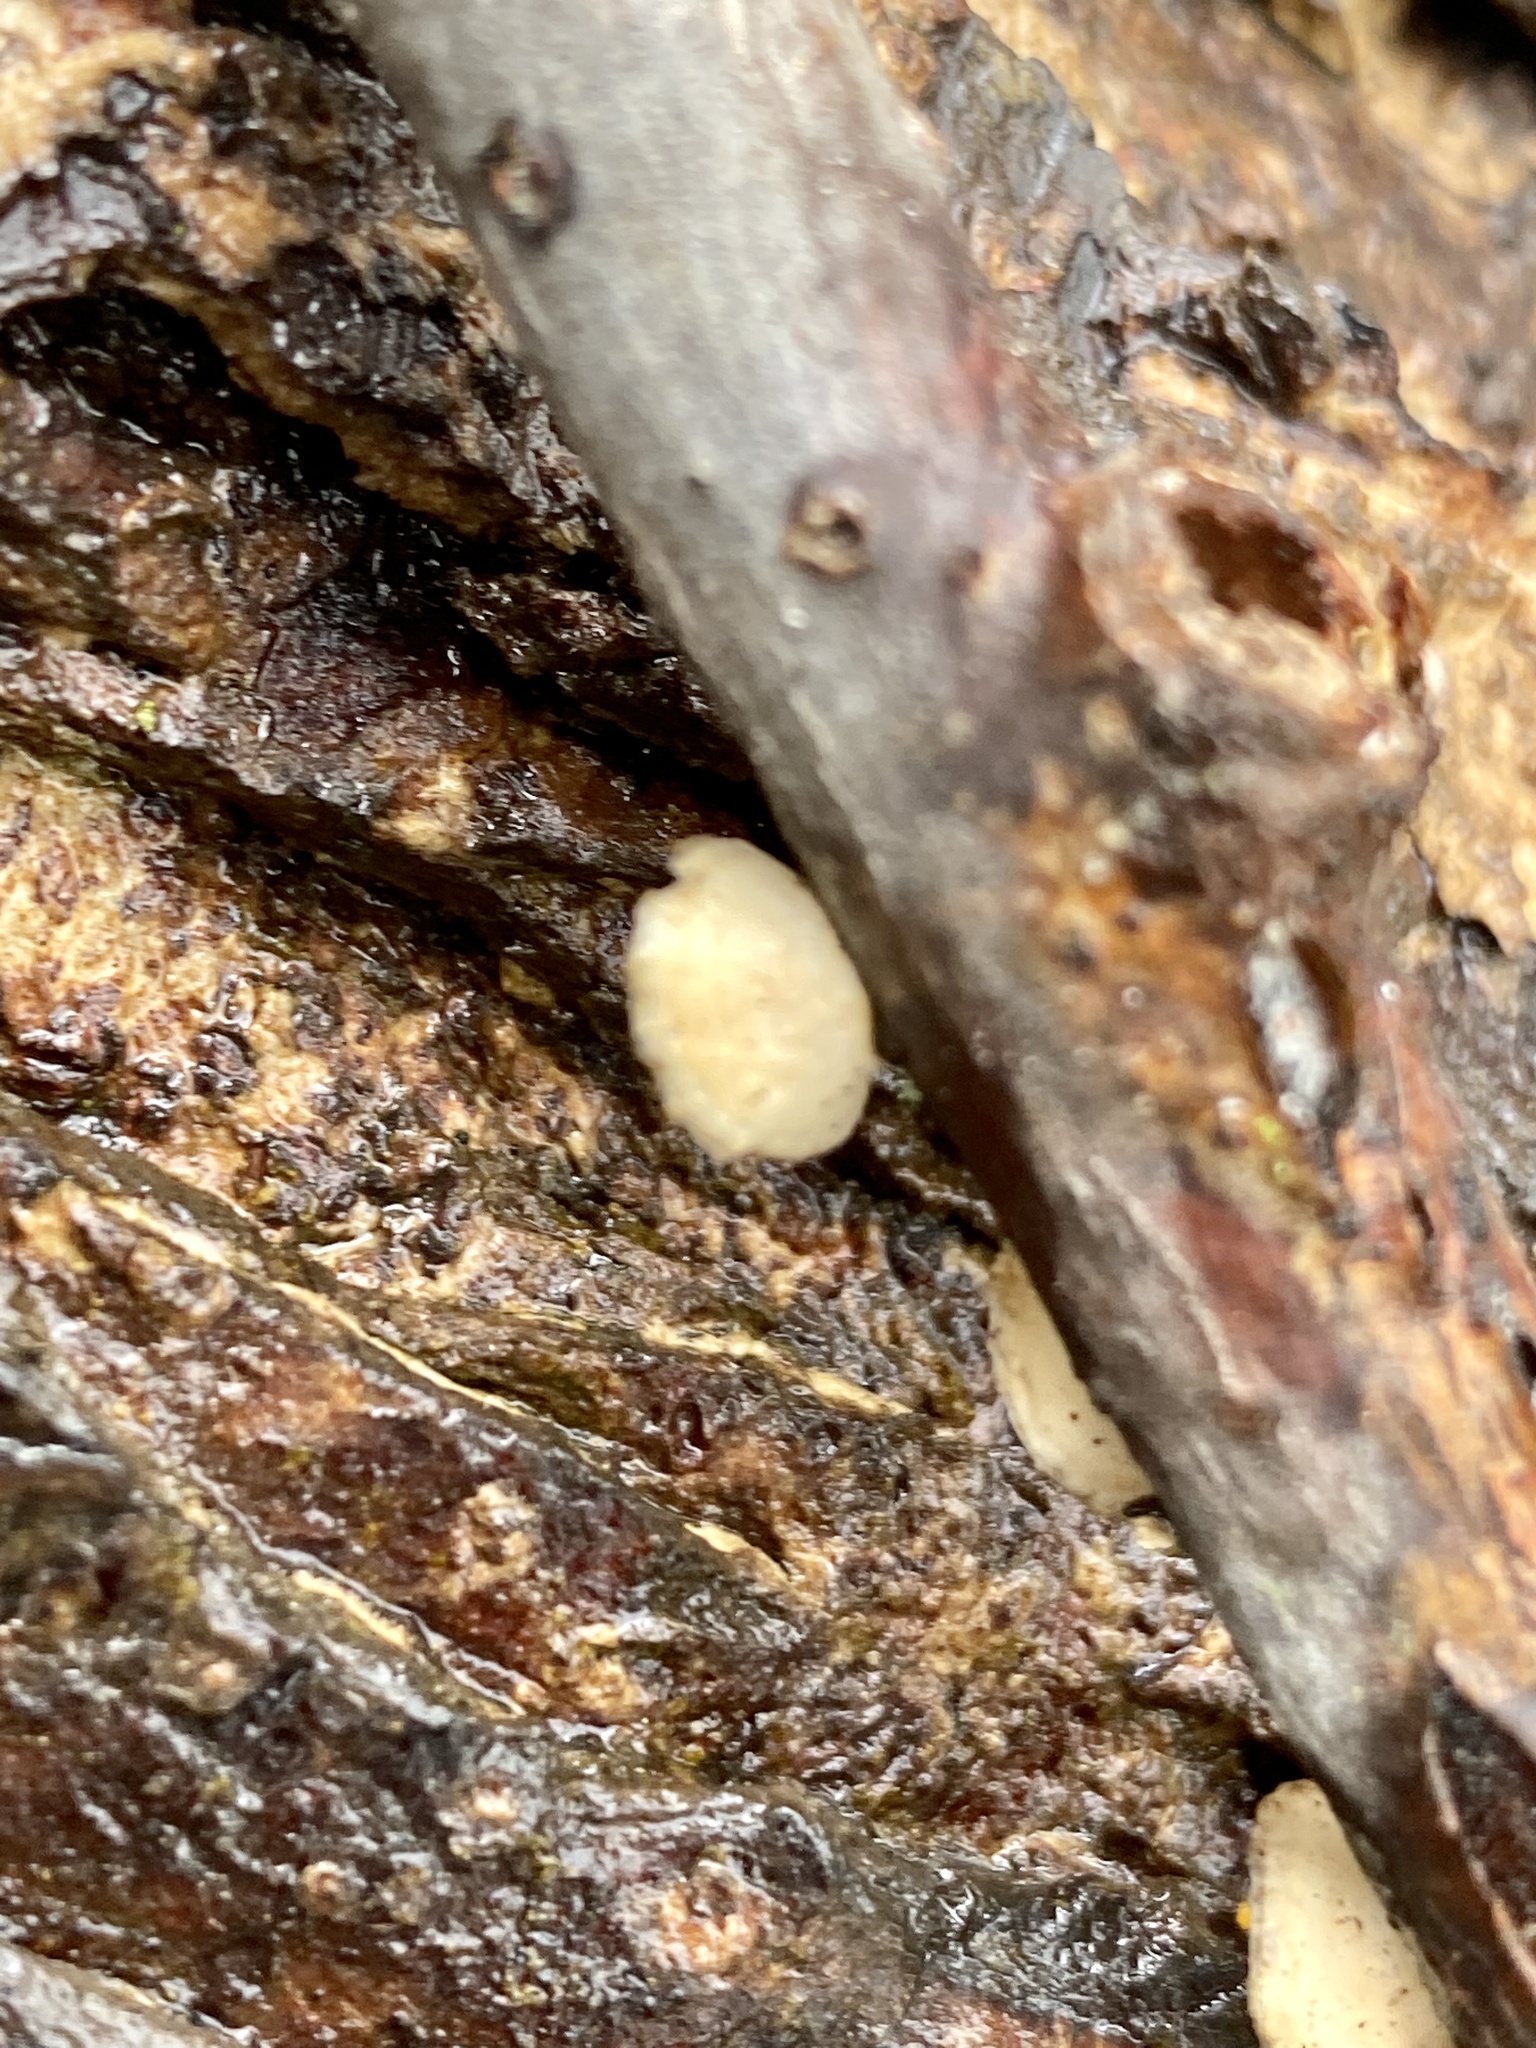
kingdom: Fungi
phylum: Basidiomycota
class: Agaricomycetes
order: Polyporales
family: Polyporaceae
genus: Poronidulus
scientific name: Poronidulus conchifer
